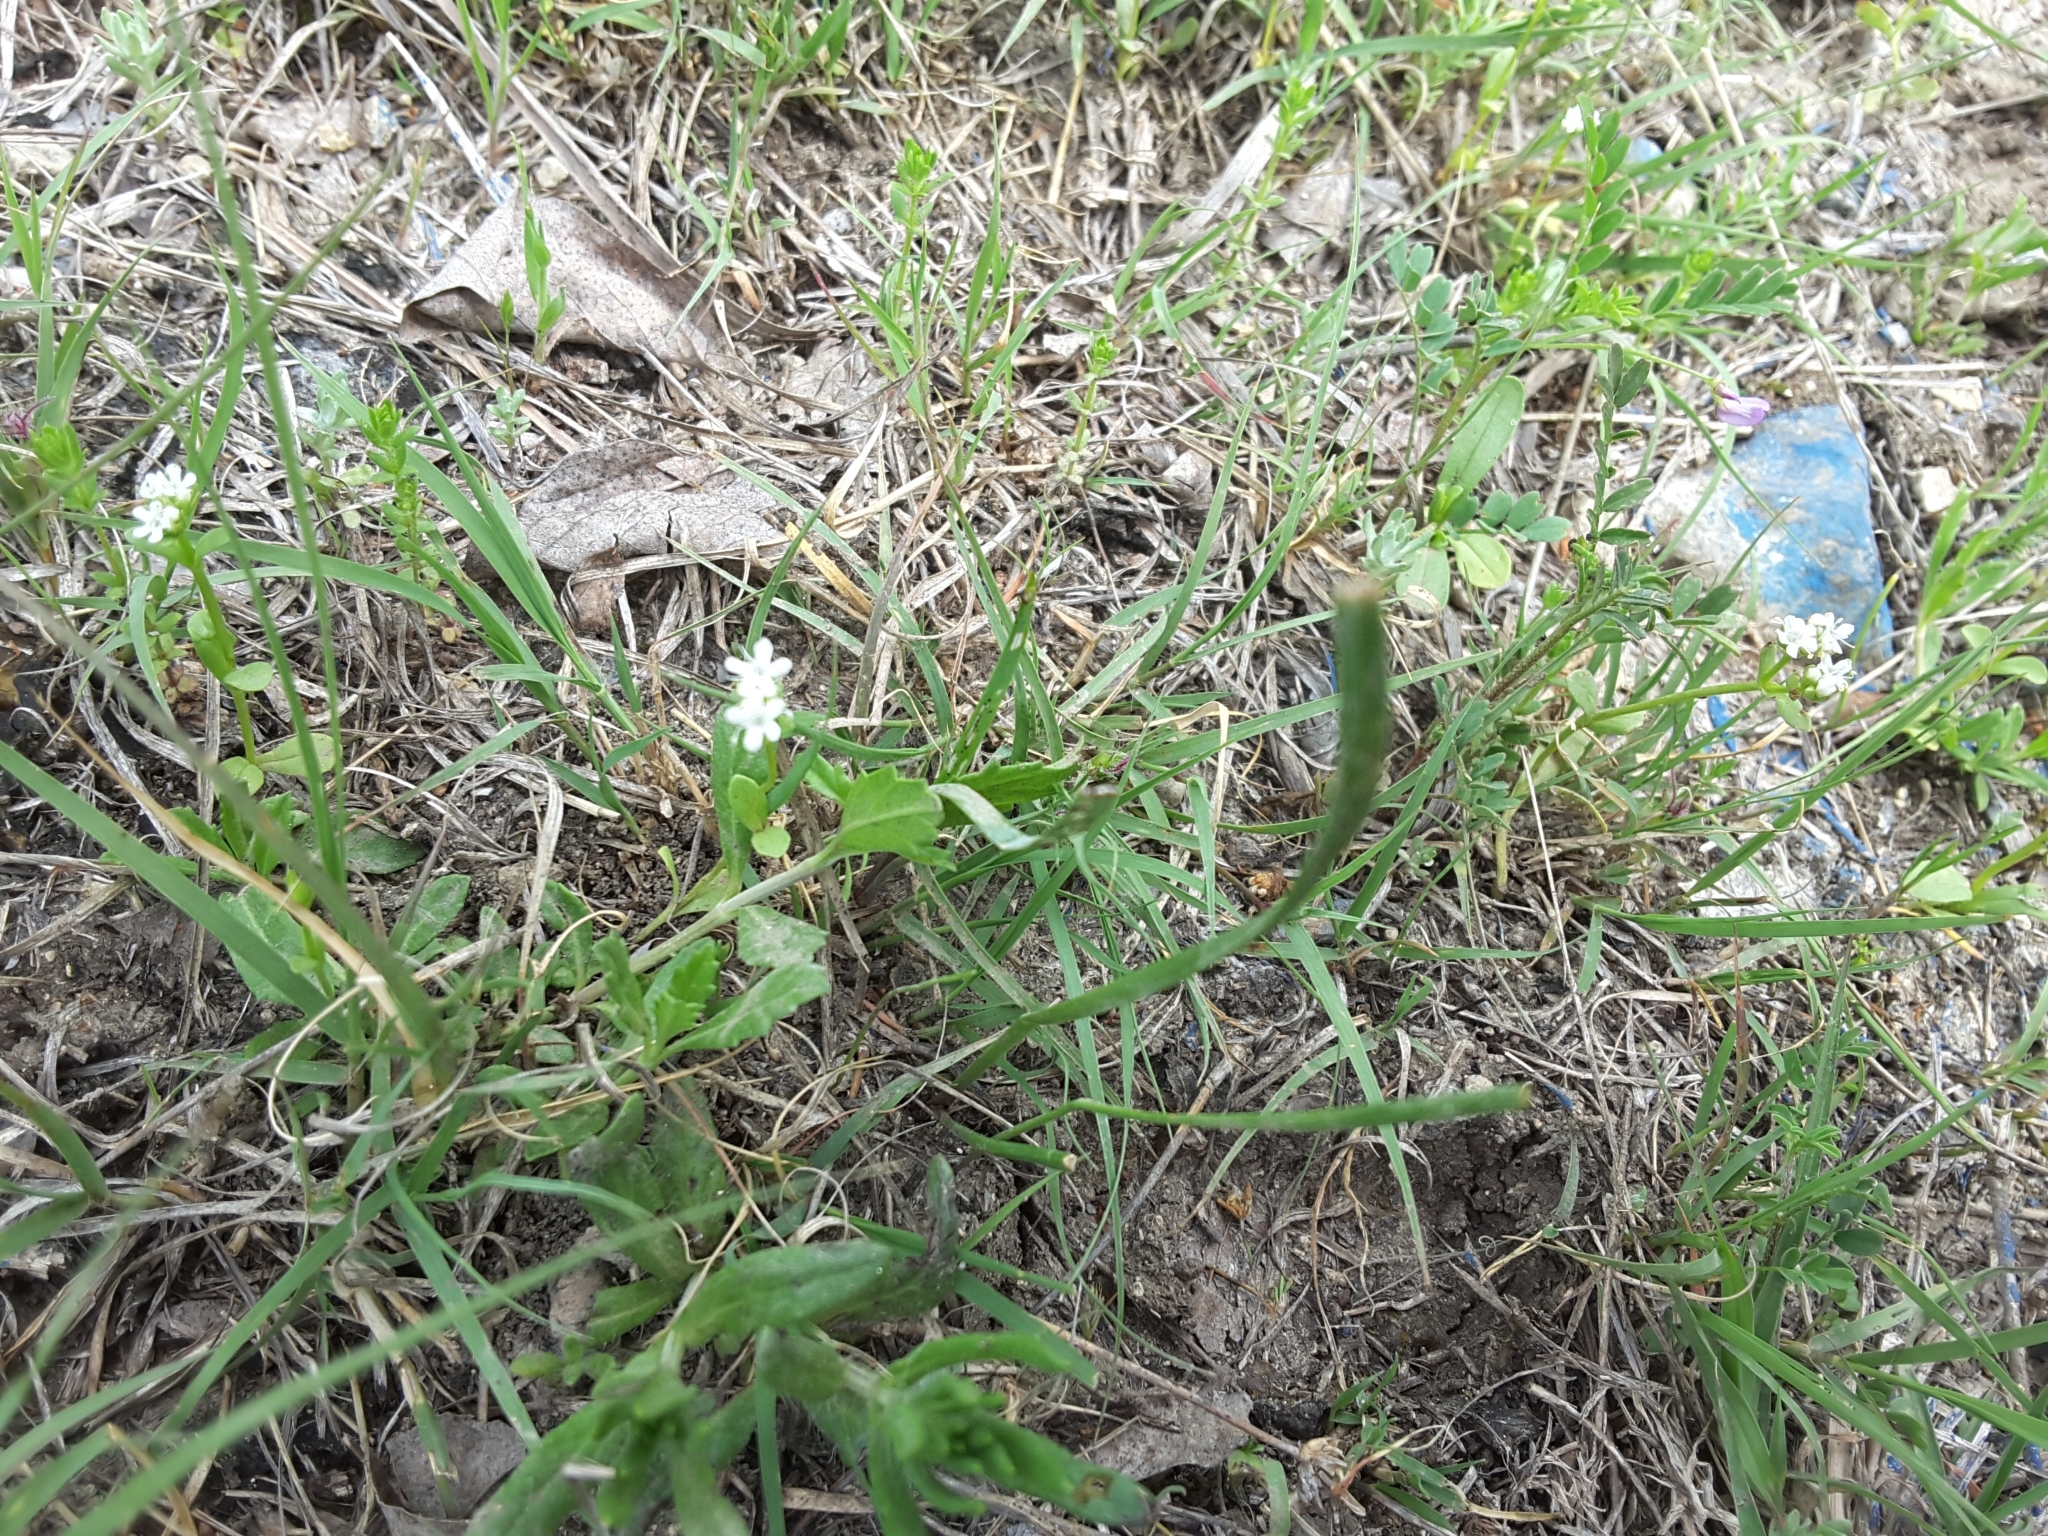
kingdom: Plantae
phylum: Tracheophyta
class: Magnoliopsida
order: Boraginales
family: Boraginaceae
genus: Buglossoides
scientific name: Buglossoides arvensis
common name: Corn gromwell
